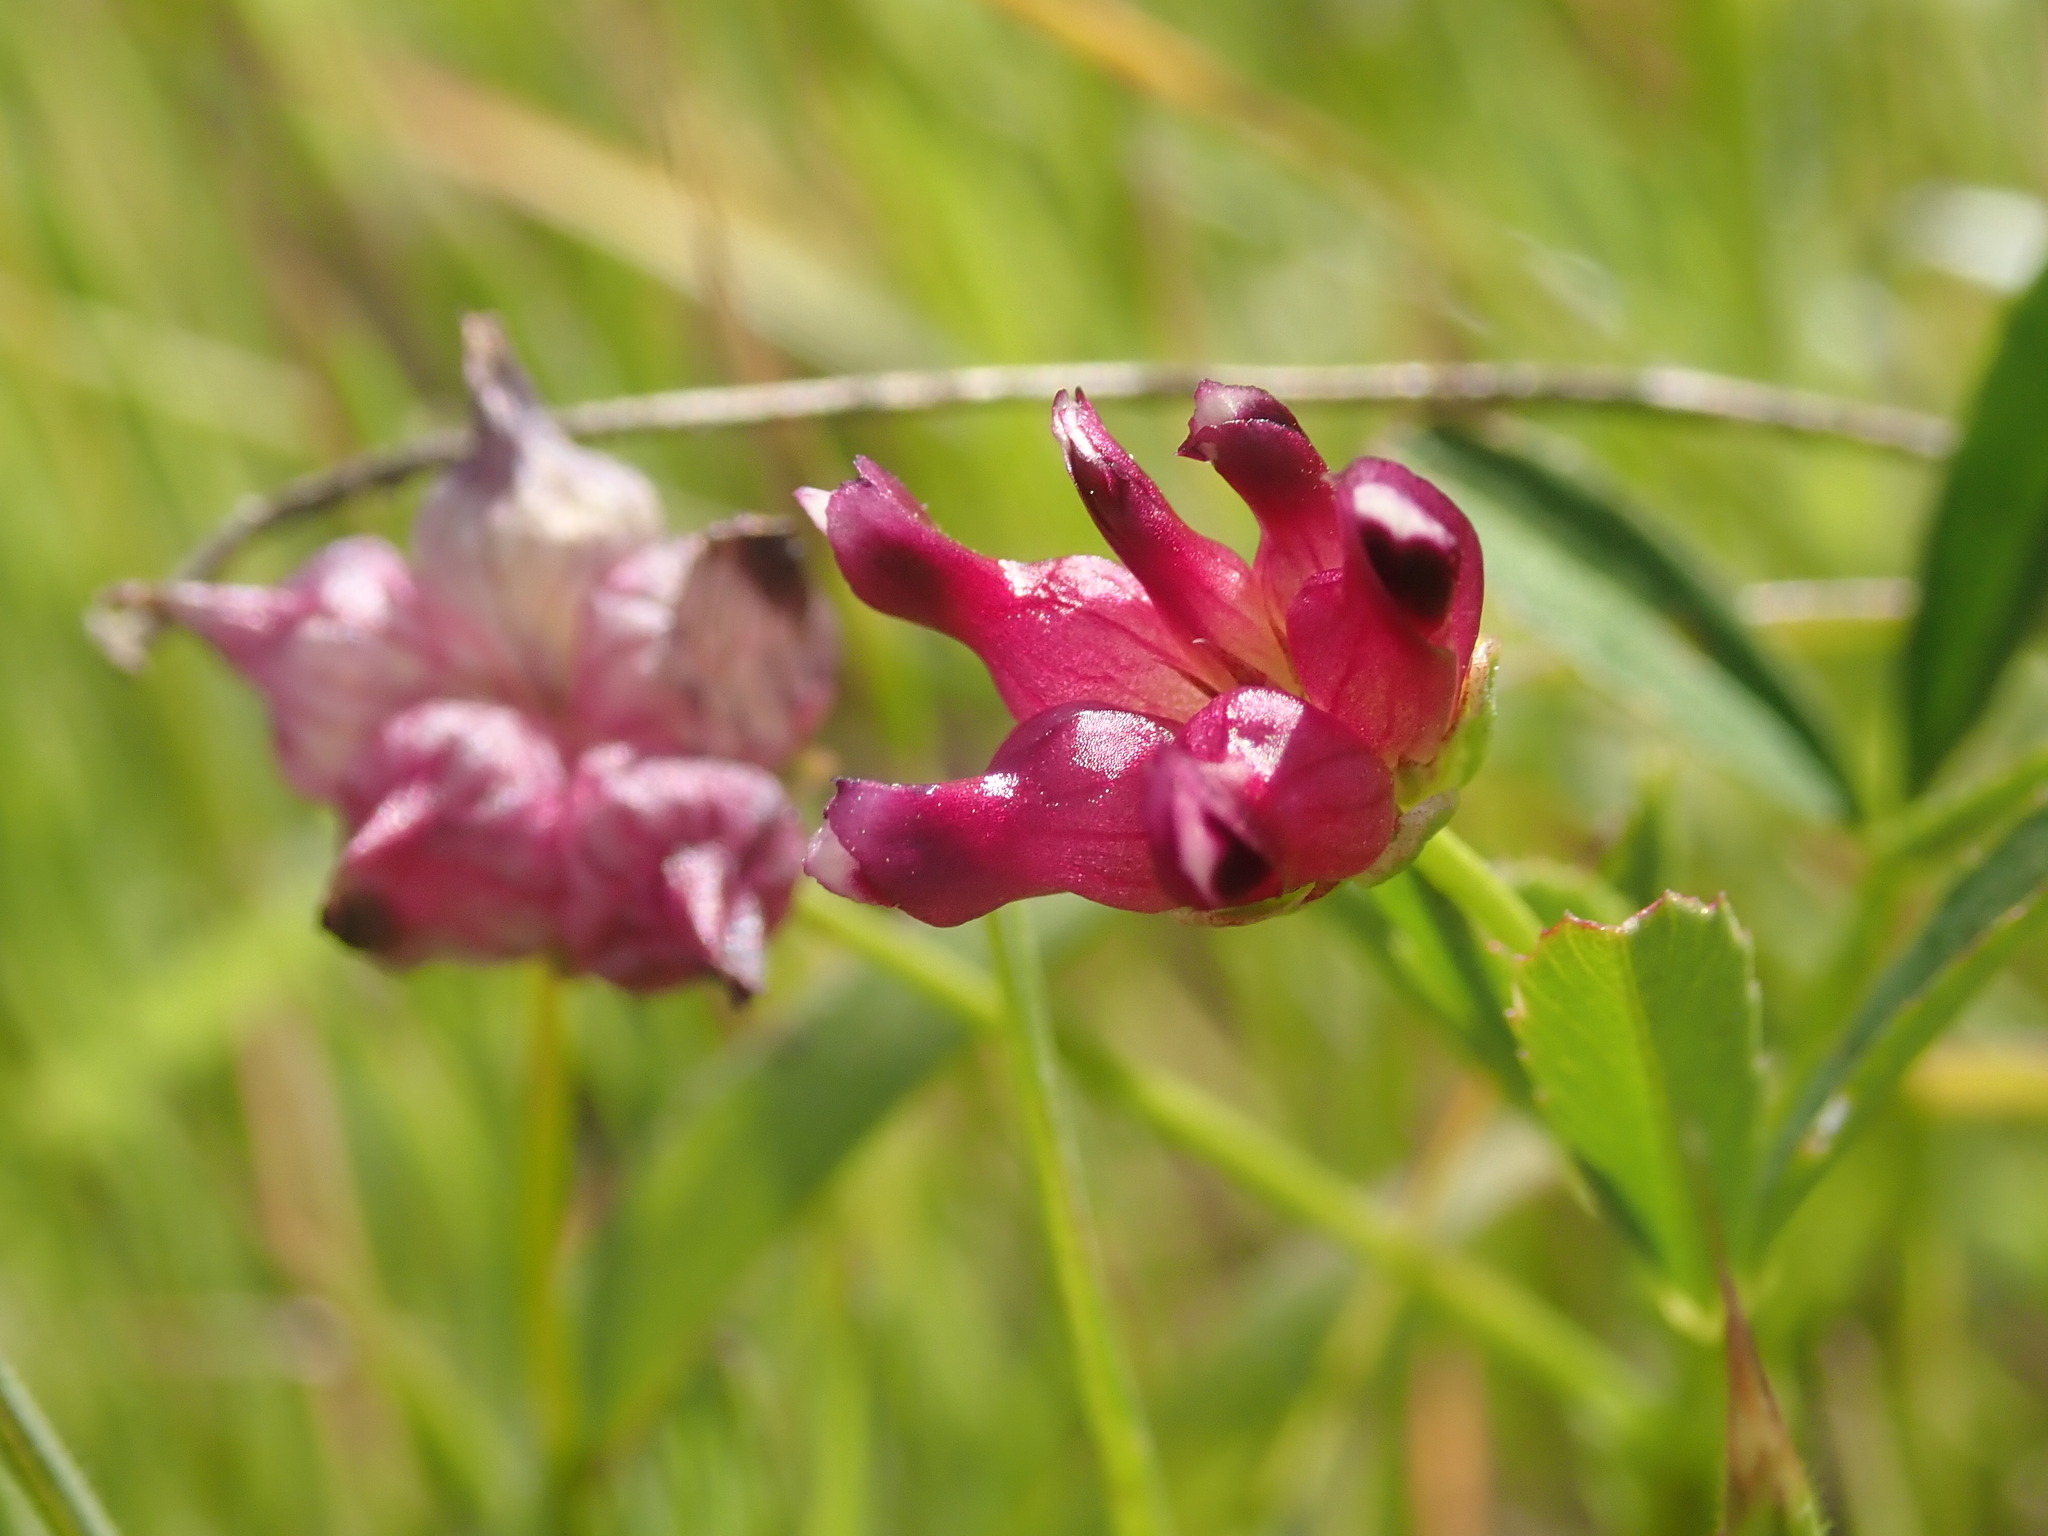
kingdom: Plantae
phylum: Tracheophyta
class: Magnoliopsida
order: Fabales
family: Fabaceae
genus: Trifolium
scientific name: Trifolium depauperatum
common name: Poverty clover
